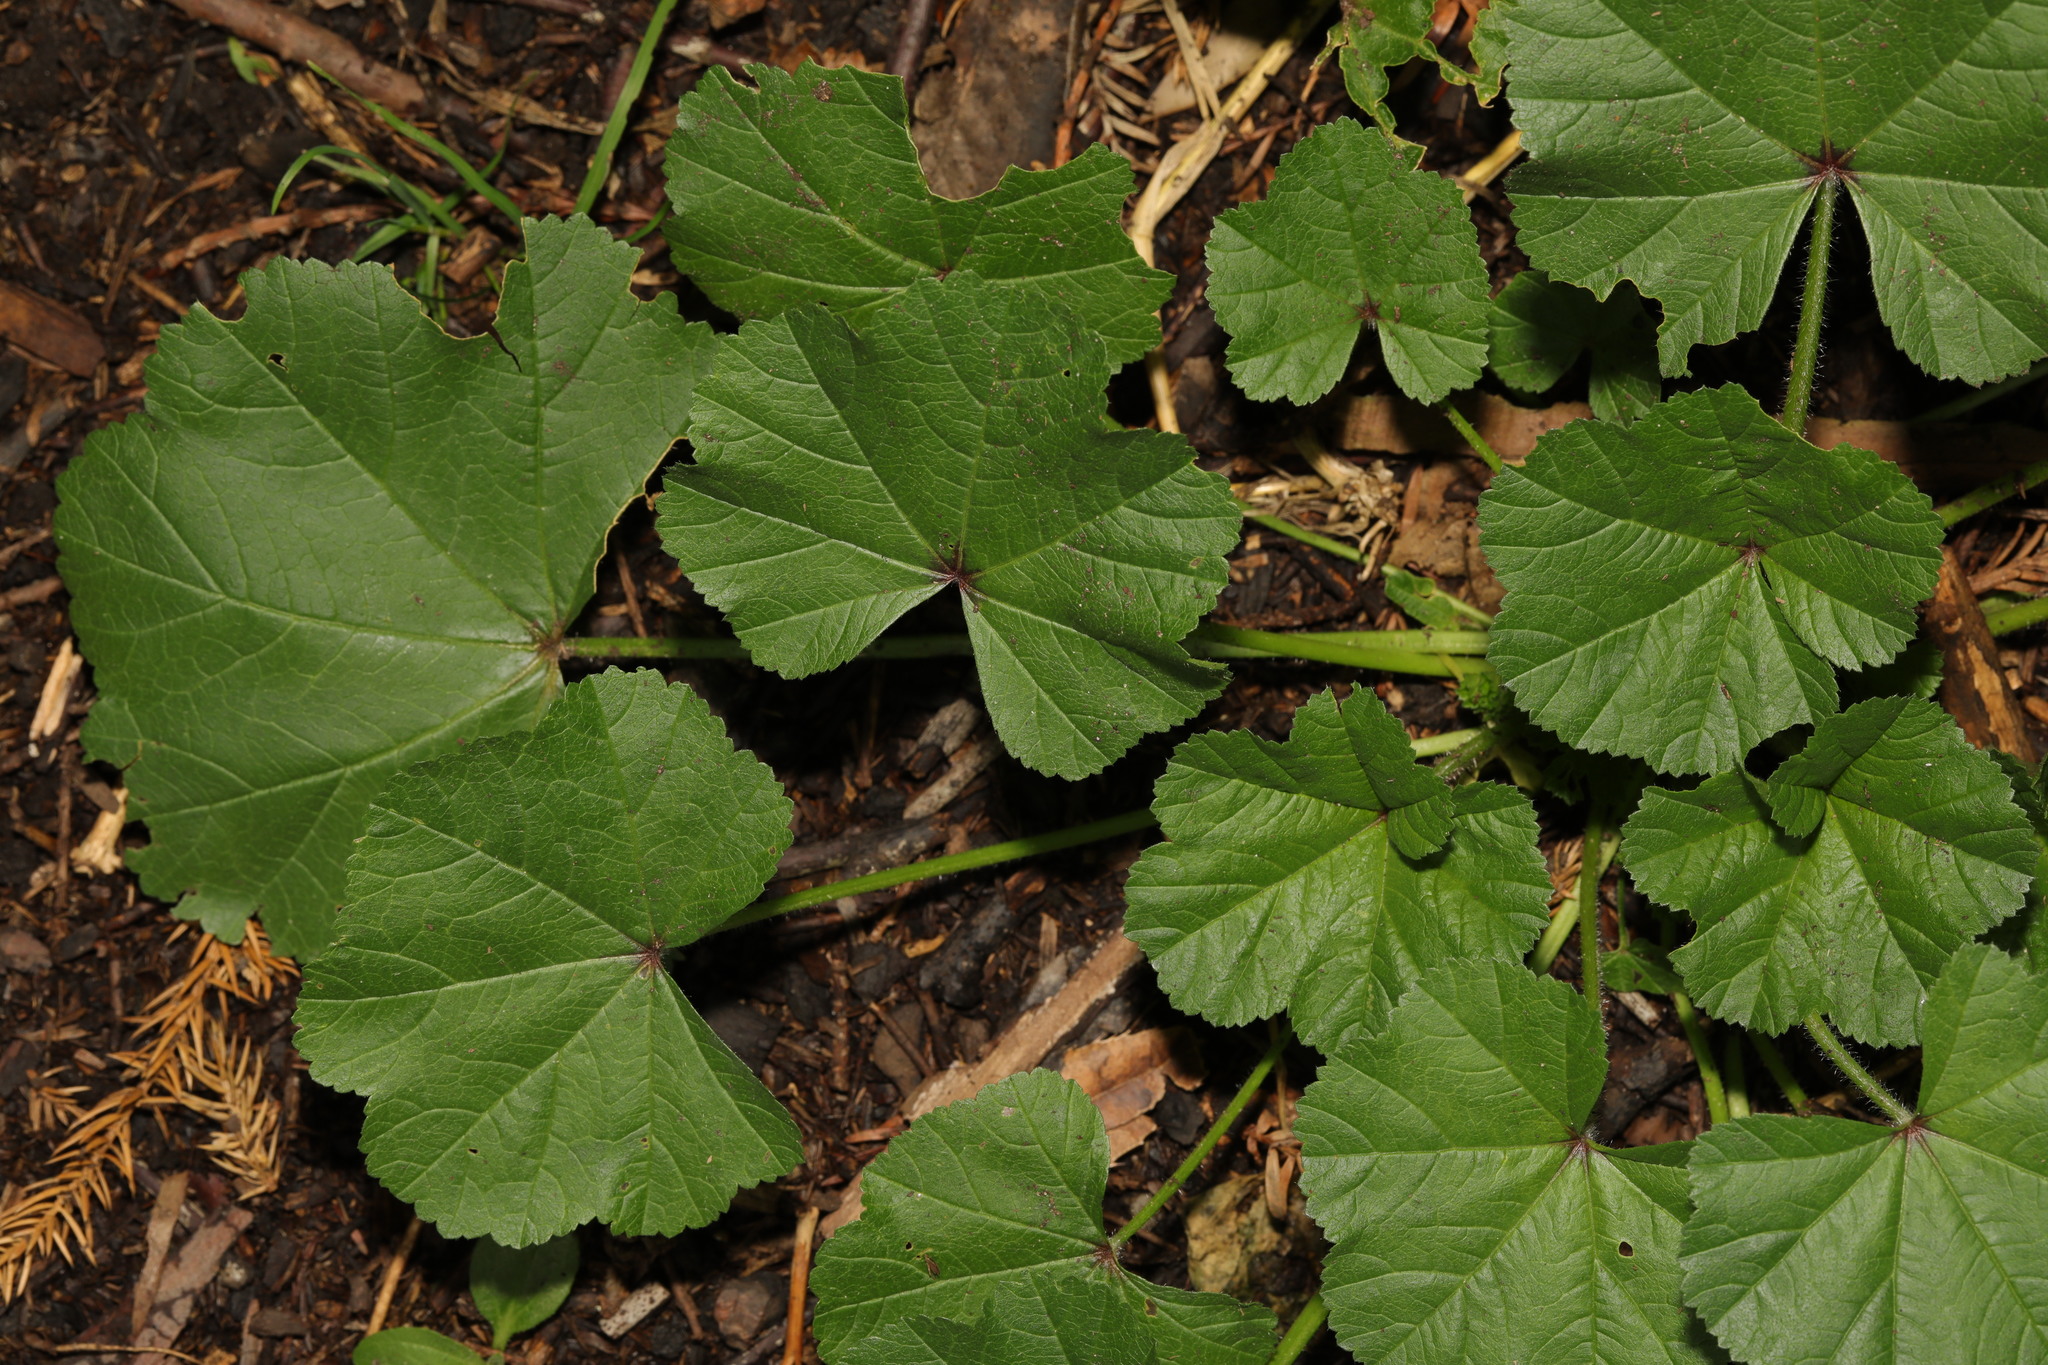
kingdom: Plantae
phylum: Tracheophyta
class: Magnoliopsida
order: Malvales
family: Malvaceae
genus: Malva
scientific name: Malva sylvestris
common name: Common mallow
